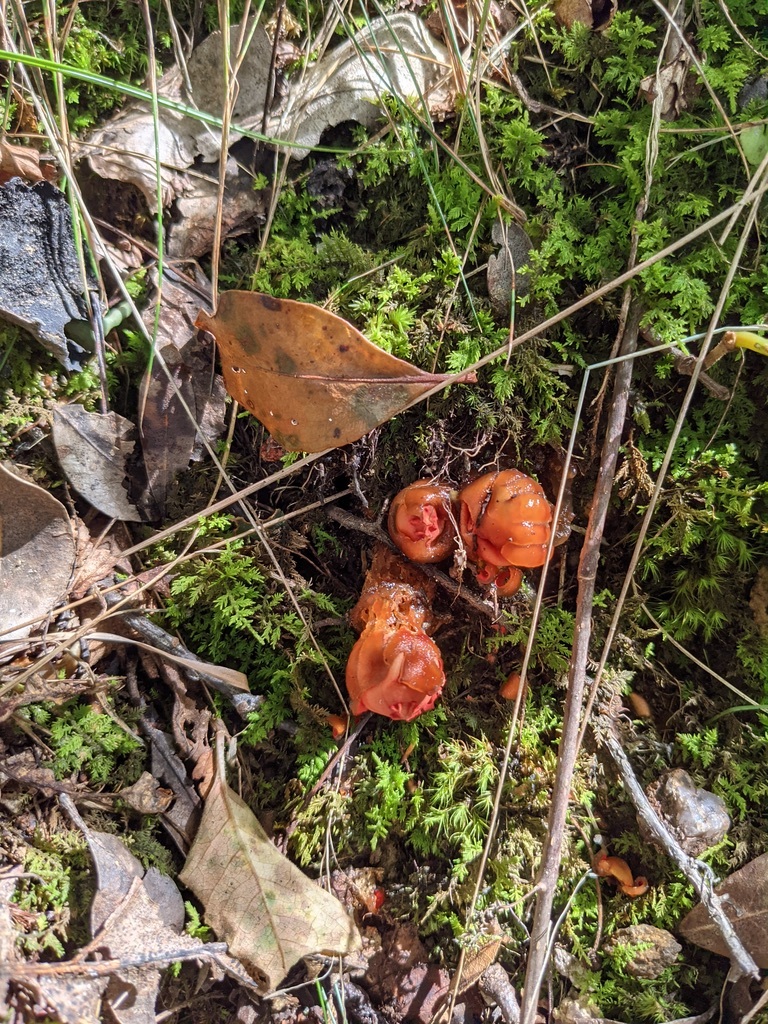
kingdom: Fungi
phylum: Basidiomycota
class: Agaricomycetes
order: Boletales
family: Calostomataceae
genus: Calostoma
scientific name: Calostoma cinnabarinum
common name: Stalked puffball-in-aspic
